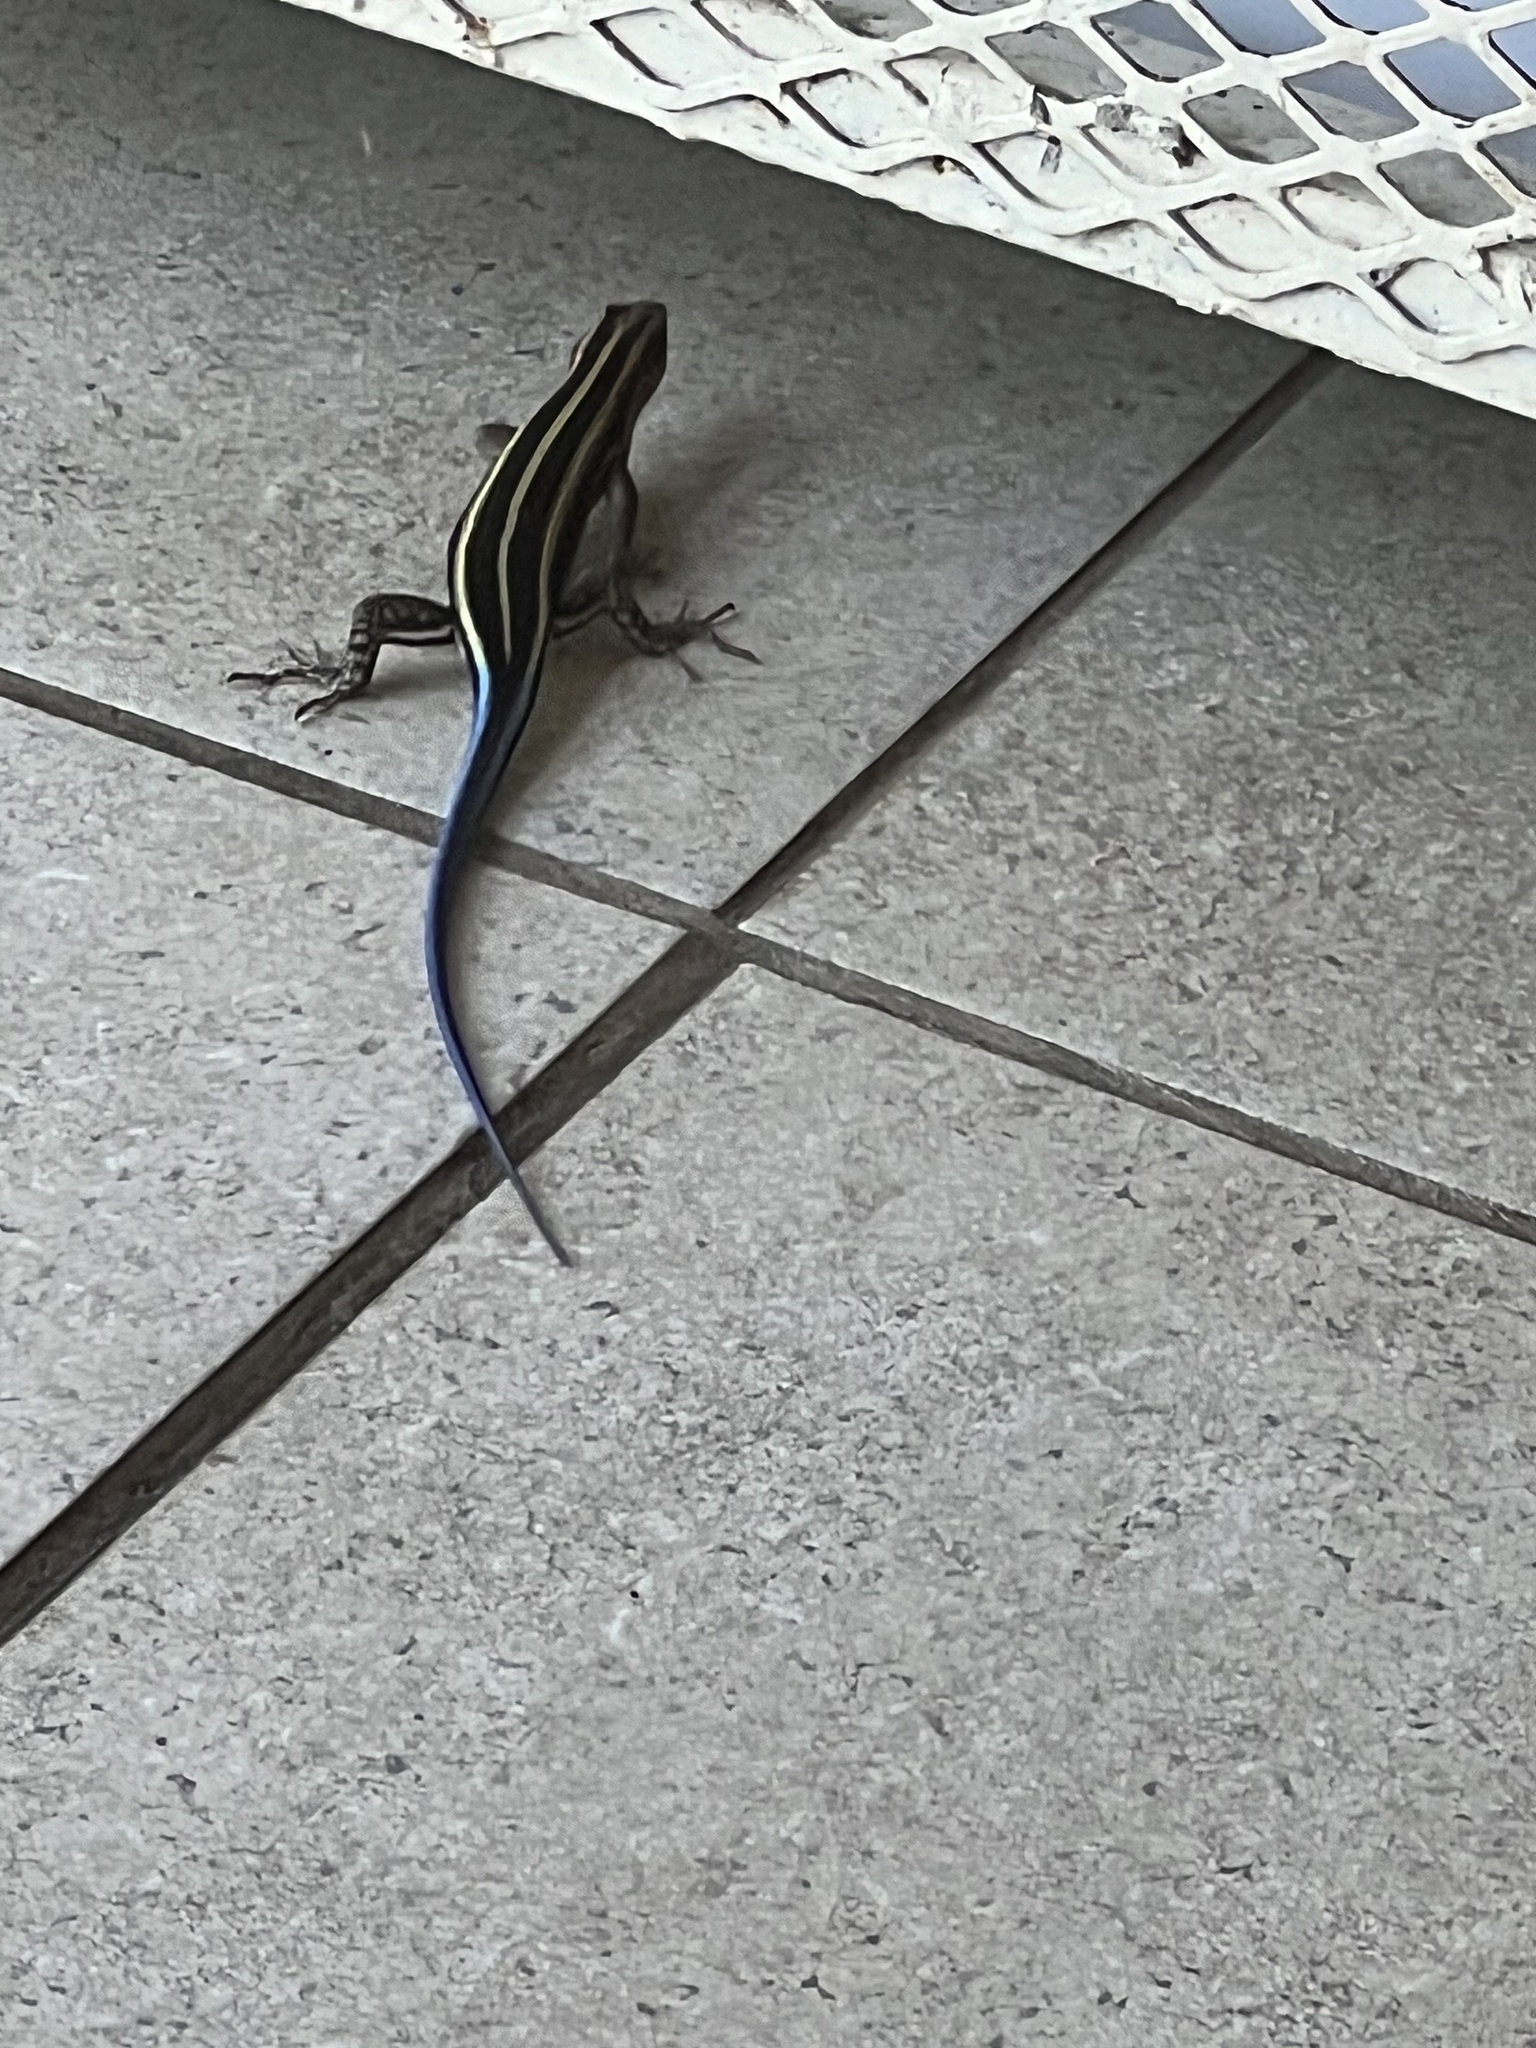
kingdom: Animalia
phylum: Chordata
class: Squamata
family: Scincidae
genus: Trachylepis
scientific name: Trachylepis margaritifera
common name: Rainbow skink
